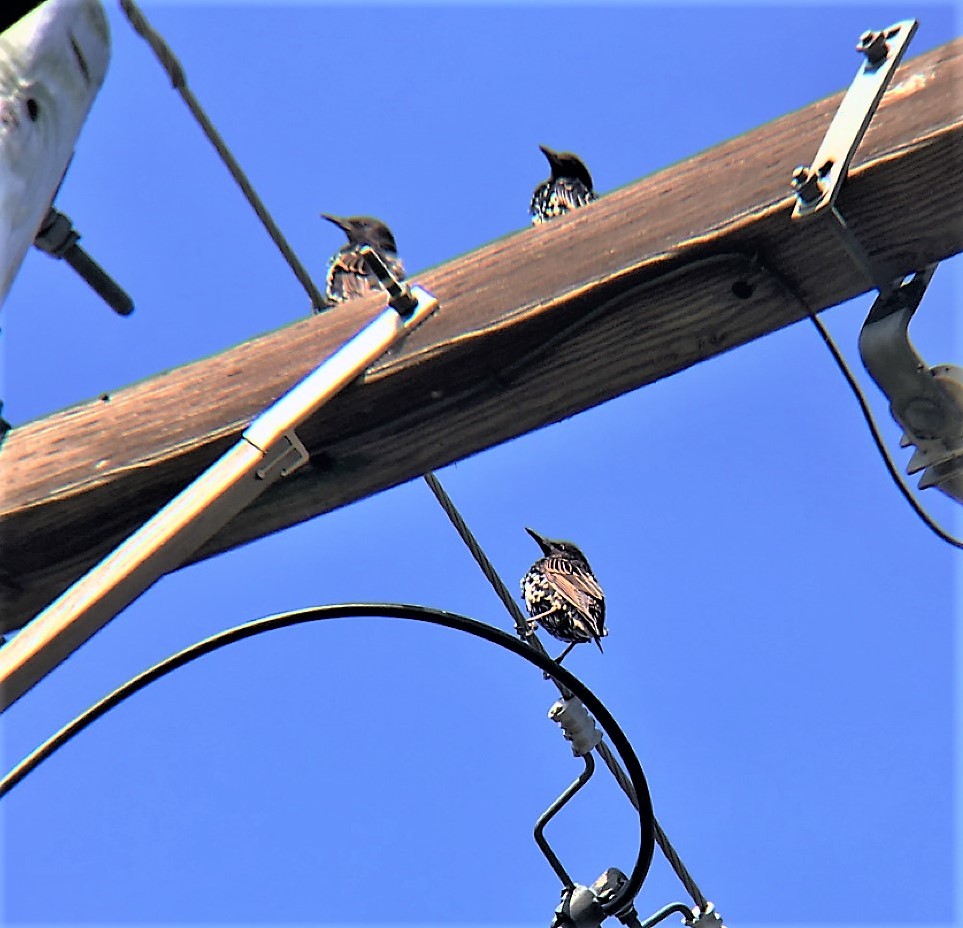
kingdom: Animalia
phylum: Chordata
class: Aves
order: Passeriformes
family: Sturnidae
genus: Sturnus
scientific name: Sturnus vulgaris
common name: Common starling
